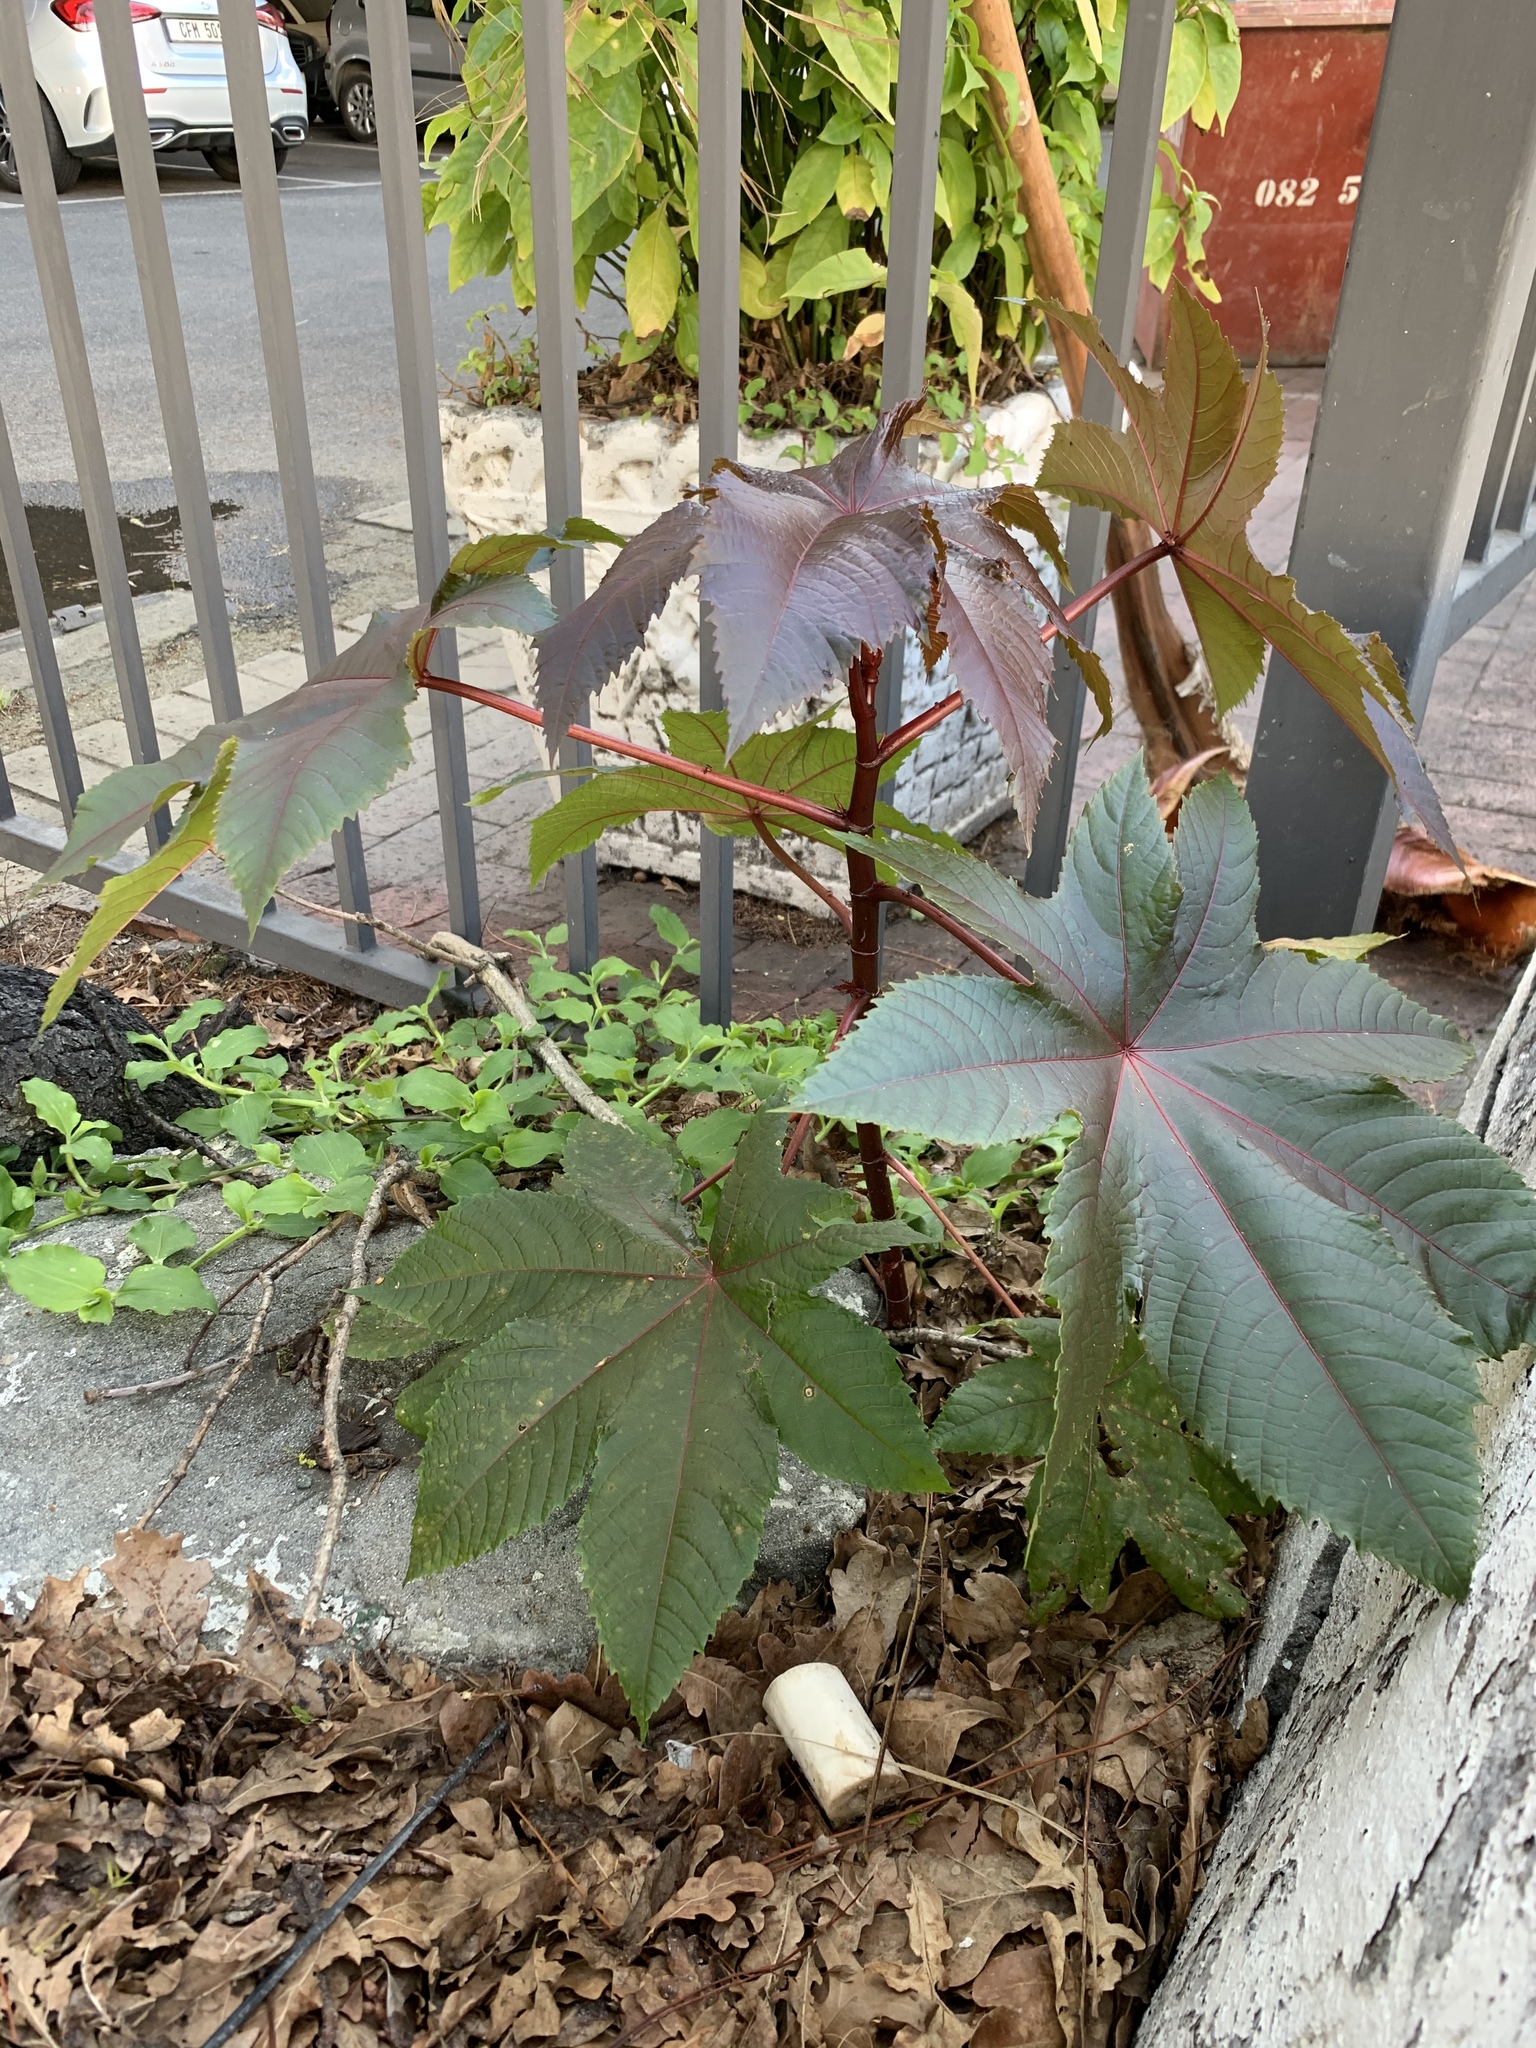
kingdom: Plantae
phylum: Tracheophyta
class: Magnoliopsida
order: Malpighiales
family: Euphorbiaceae
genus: Ricinus
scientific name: Ricinus communis
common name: Castor-oil-plant
